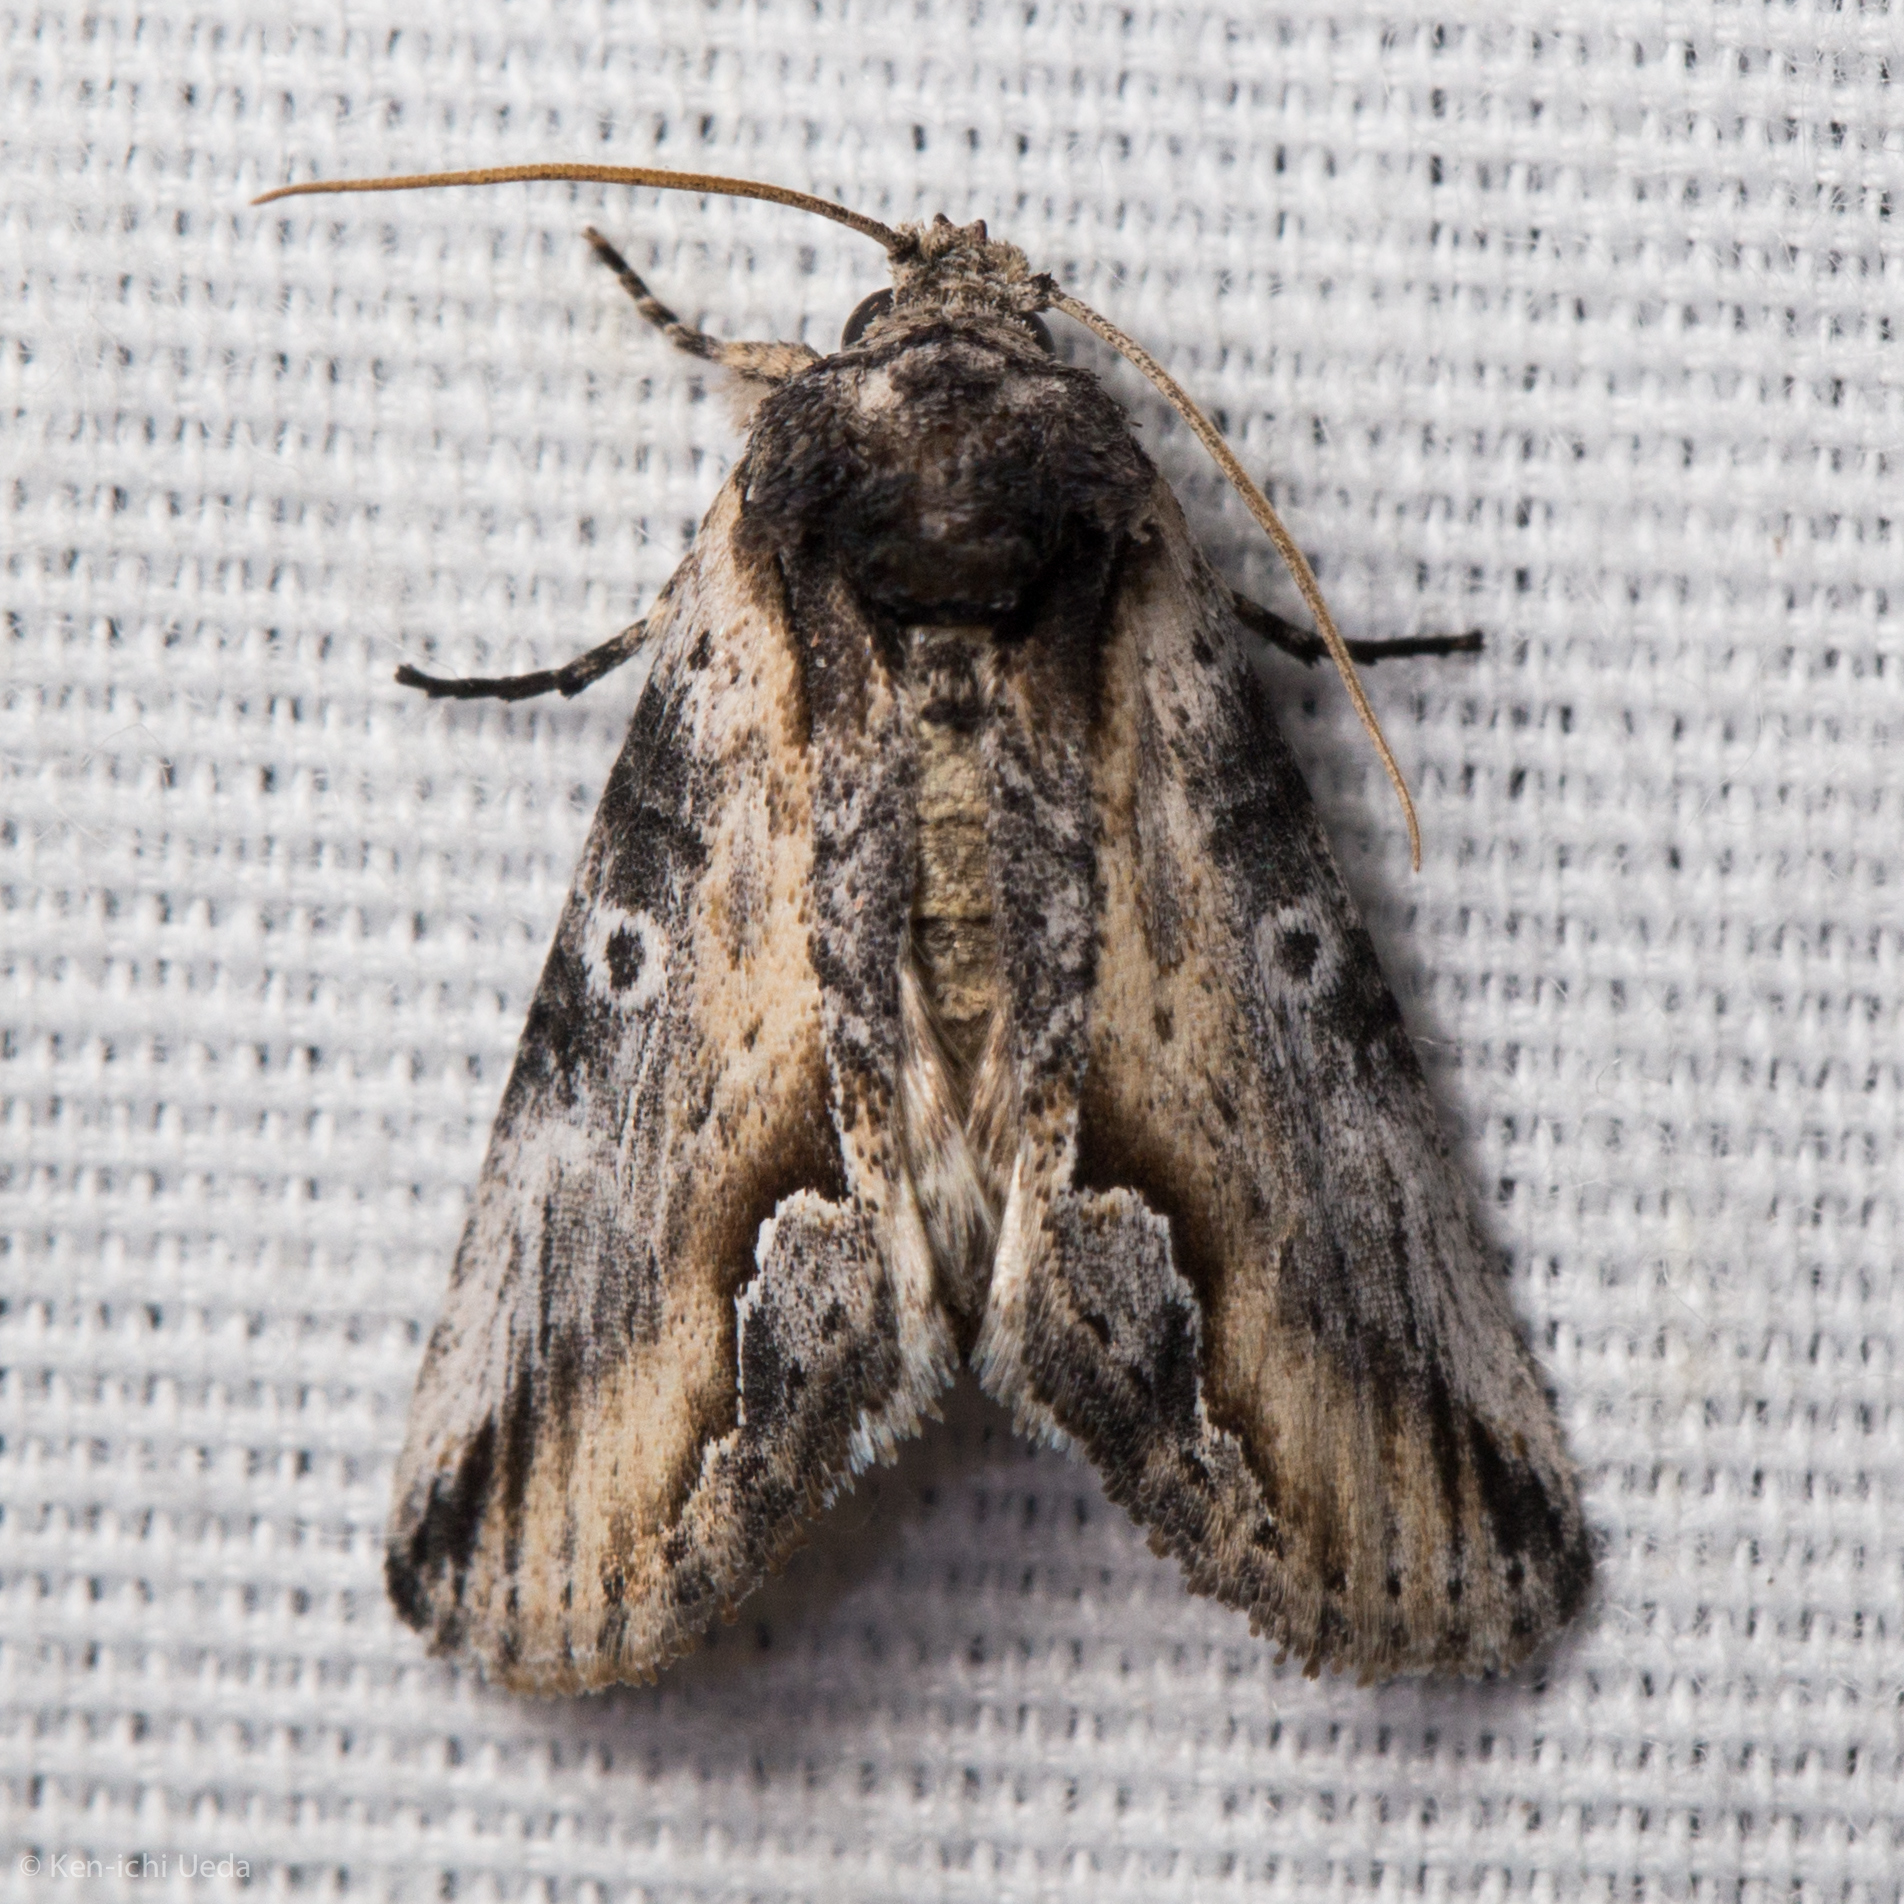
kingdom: Animalia
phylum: Arthropoda
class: Insecta
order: Lepidoptera
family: Noctuidae
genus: Prothrinax
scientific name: Prothrinax luteomedia
